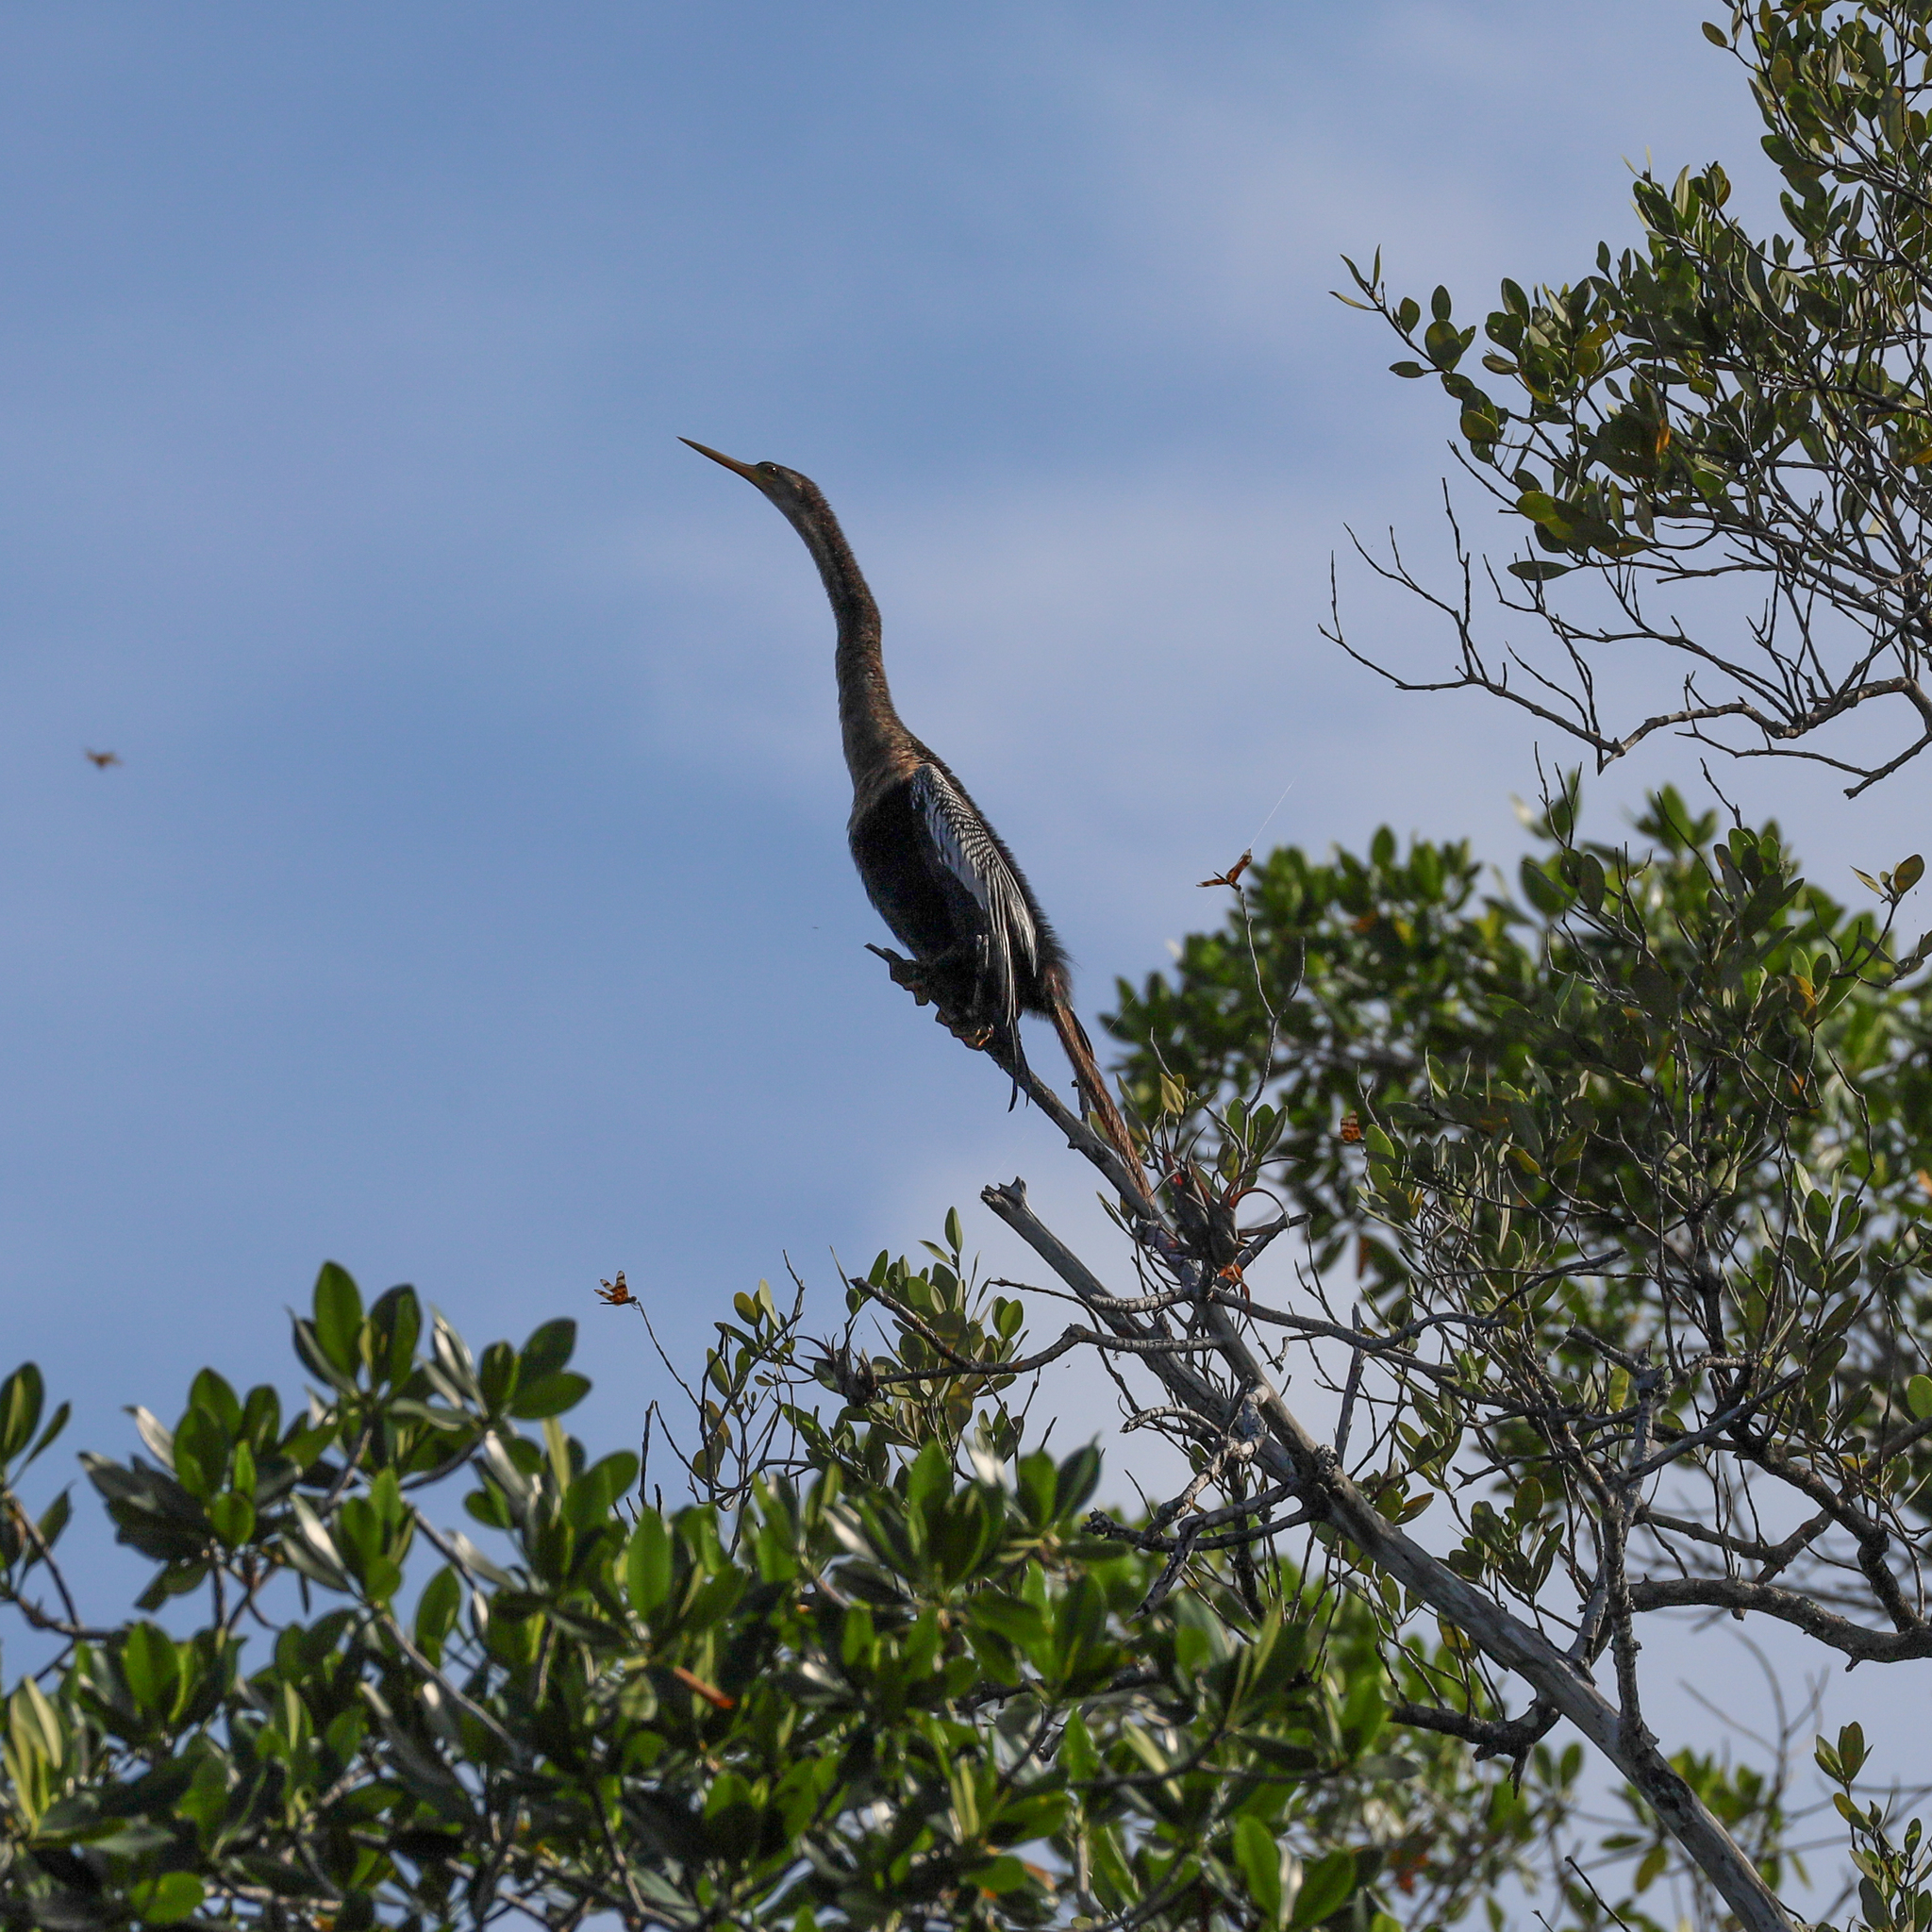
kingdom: Animalia
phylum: Chordata
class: Aves
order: Suliformes
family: Anhingidae
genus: Anhinga
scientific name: Anhinga anhinga
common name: Anhinga
